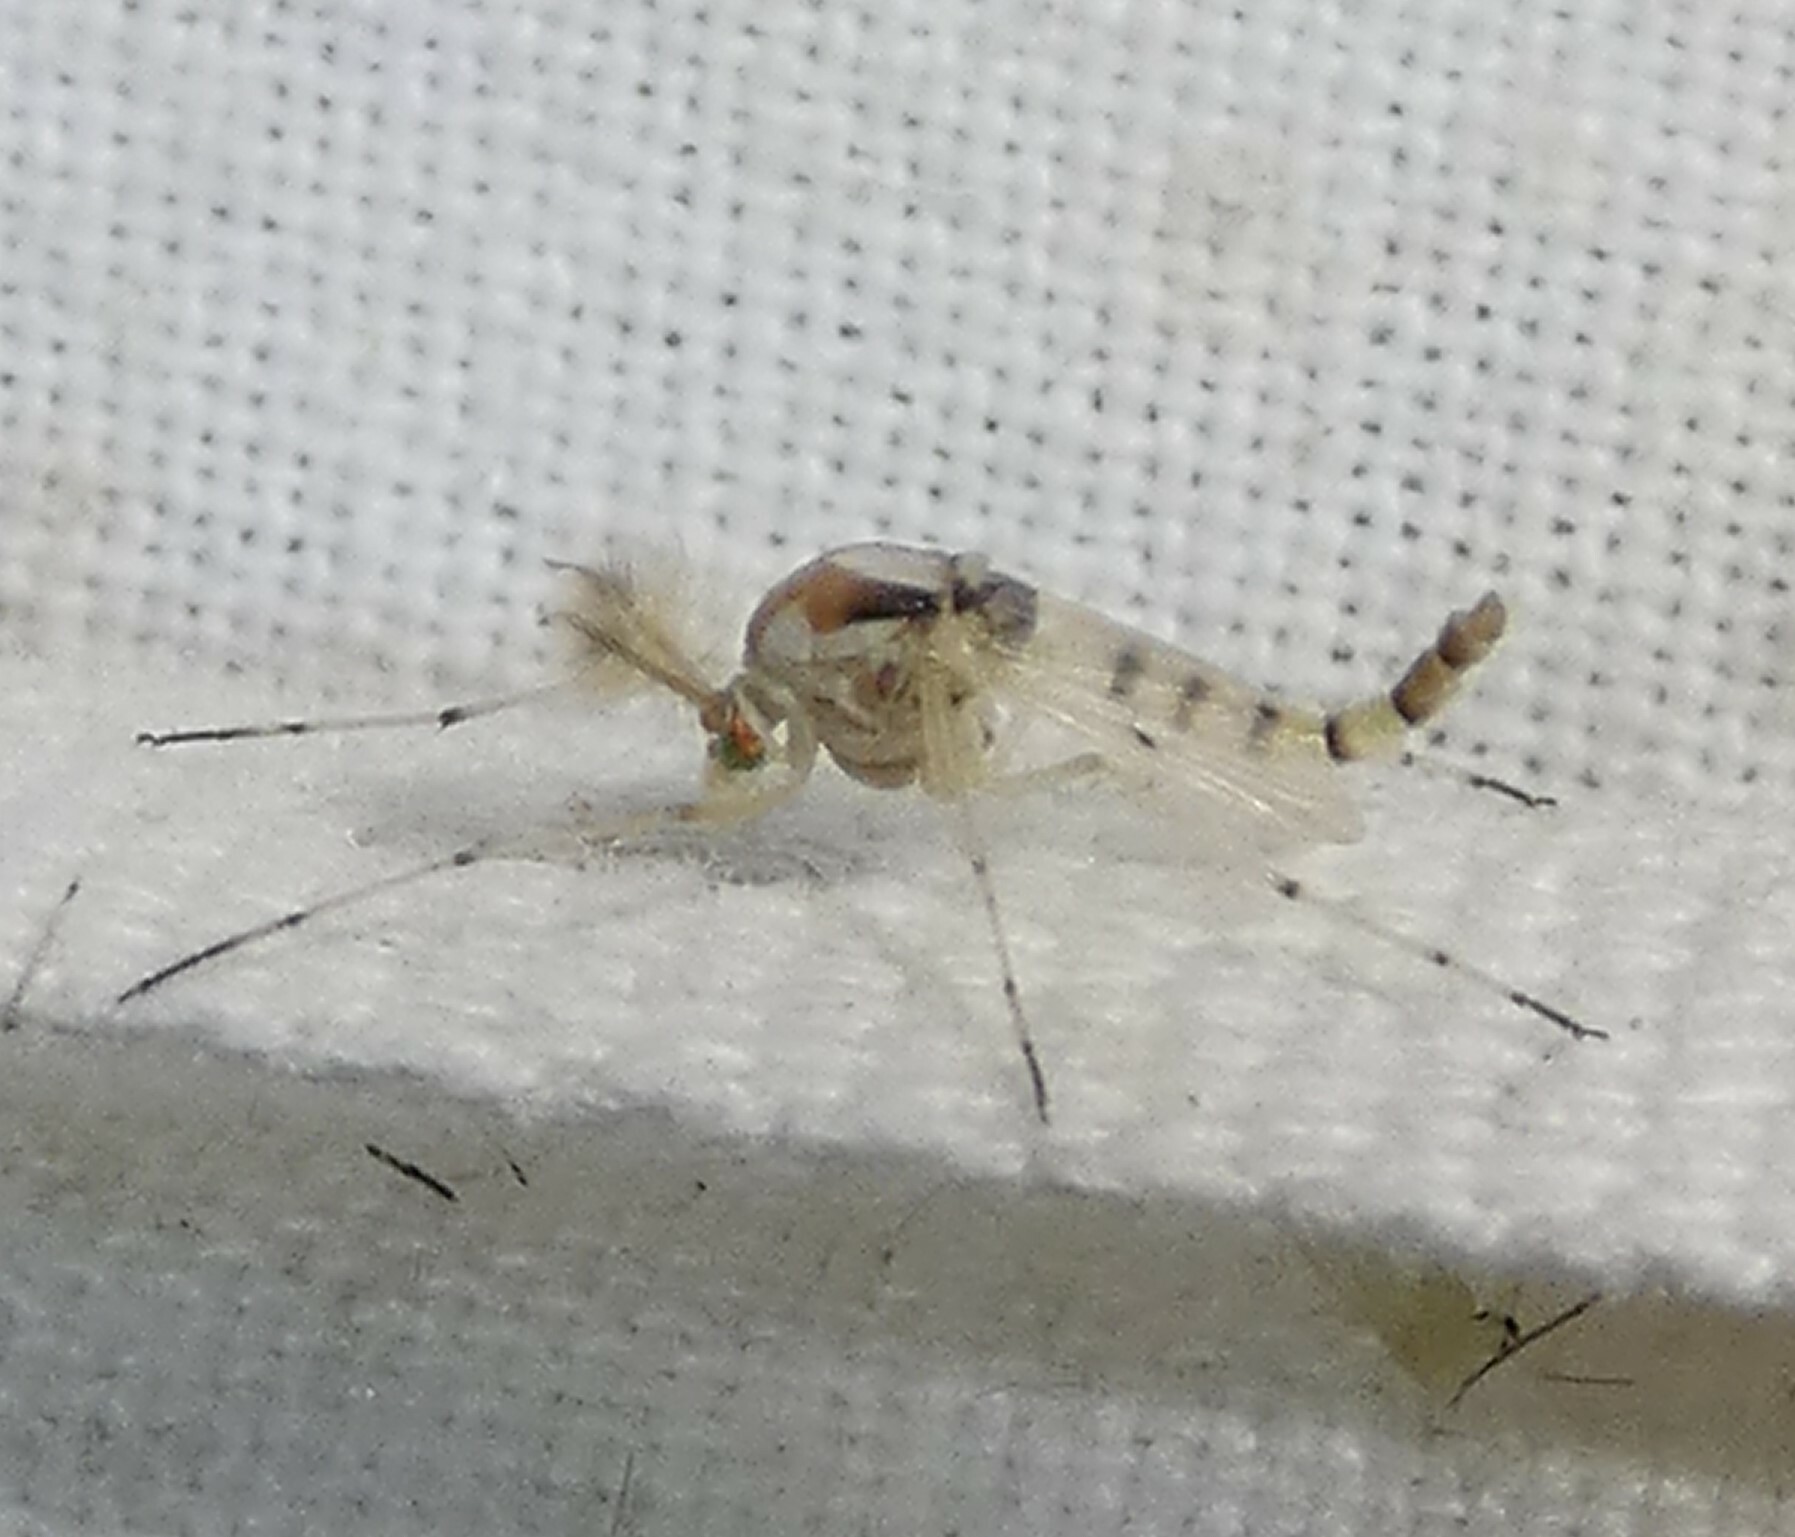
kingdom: Animalia
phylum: Arthropoda
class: Insecta
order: Diptera
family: Chironomidae
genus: Coelotanypus
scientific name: Coelotanypus concinnus
